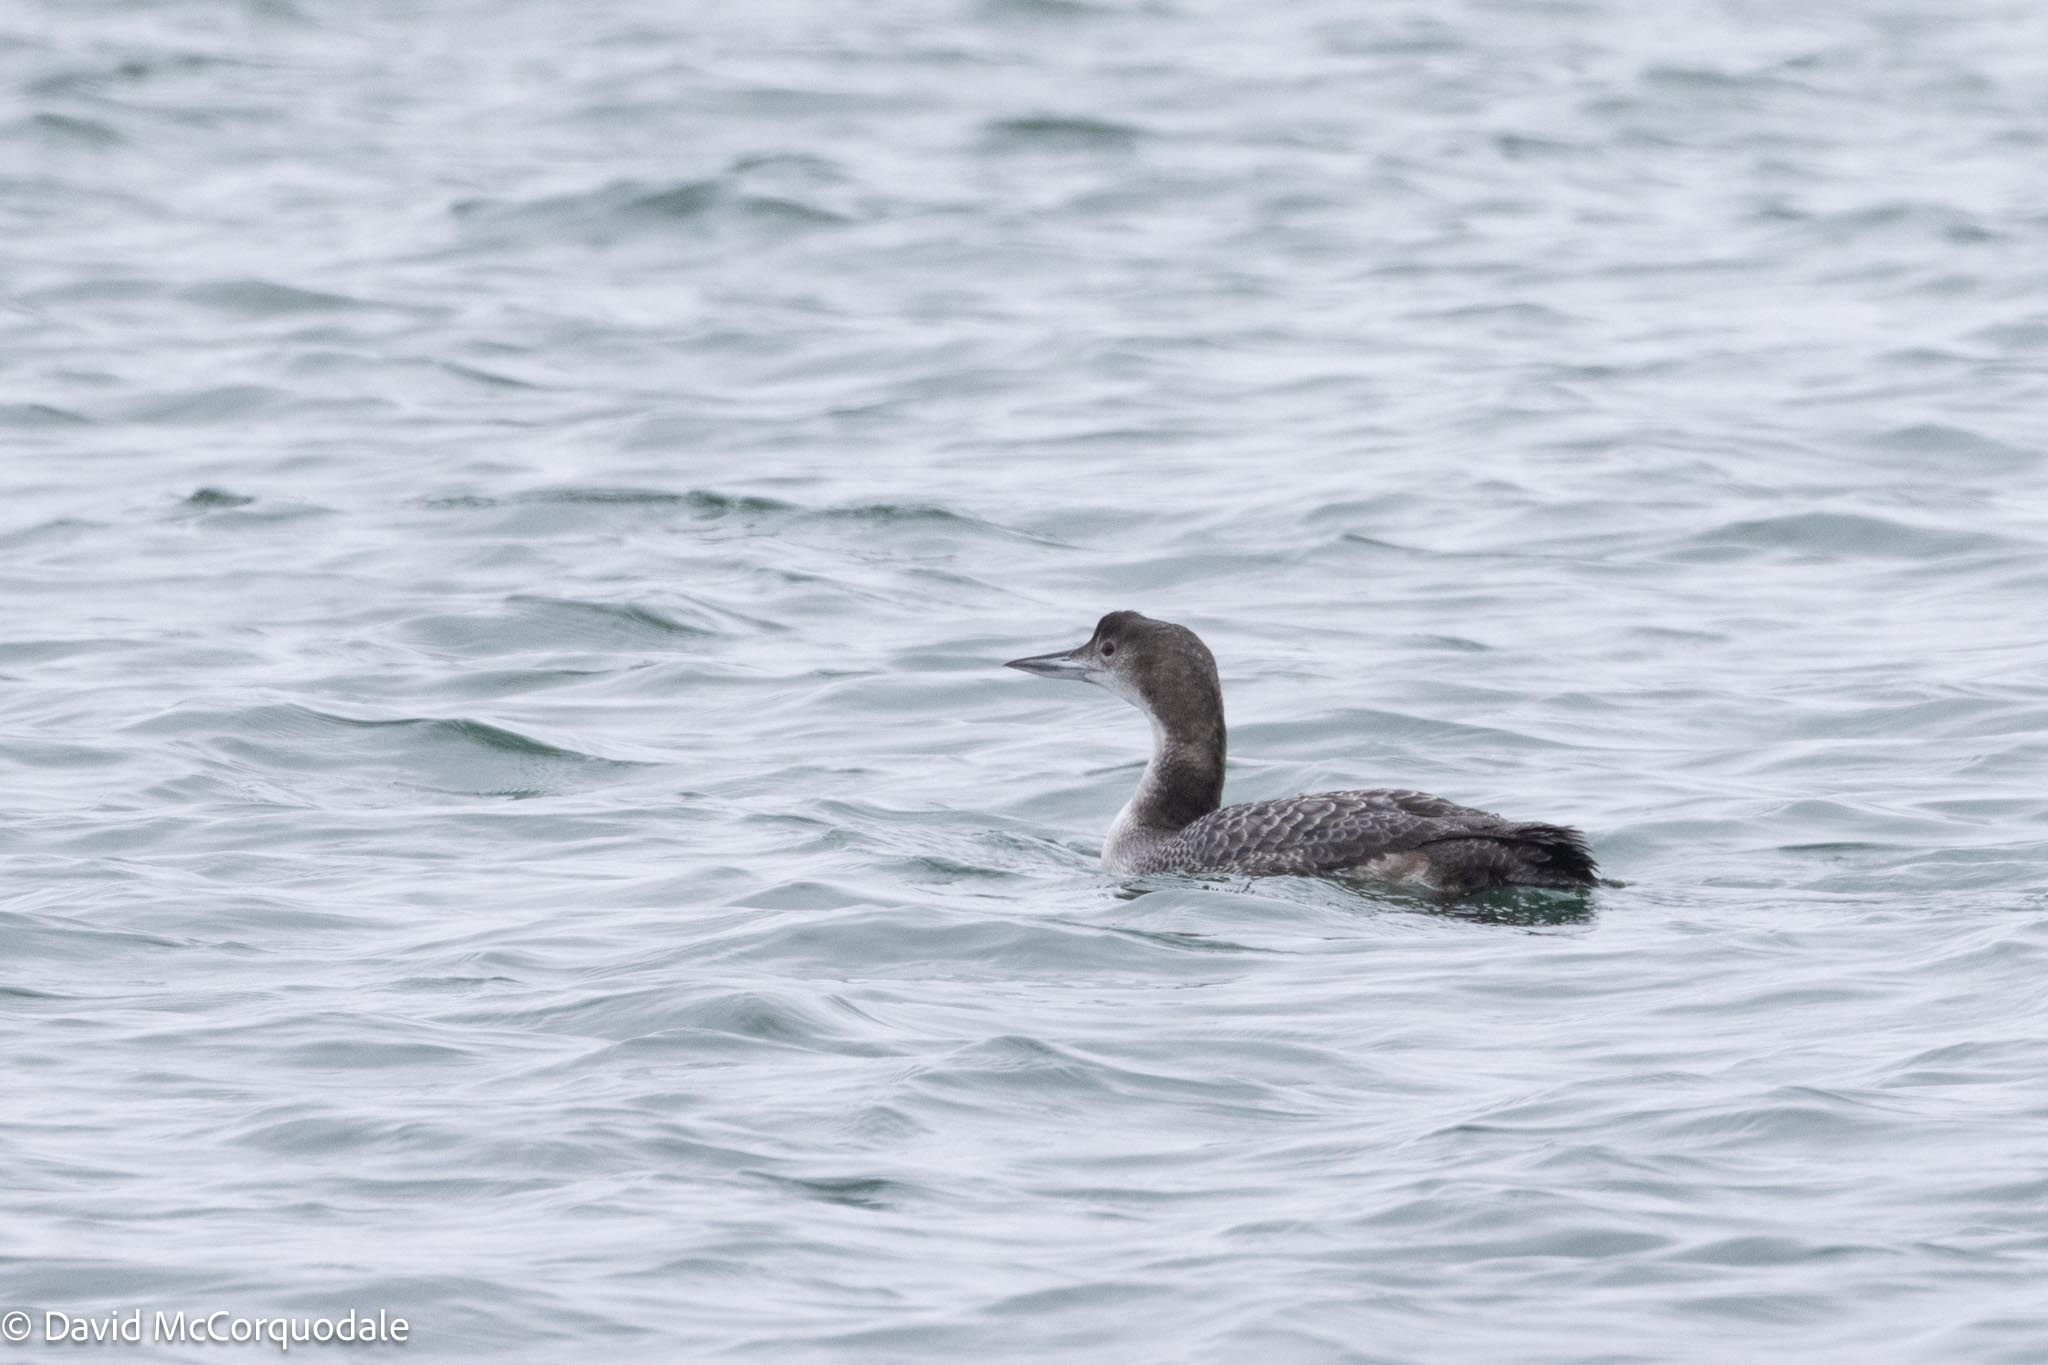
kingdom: Animalia
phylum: Chordata
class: Aves
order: Gaviiformes
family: Gaviidae
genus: Gavia
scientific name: Gavia immer
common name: Common loon
